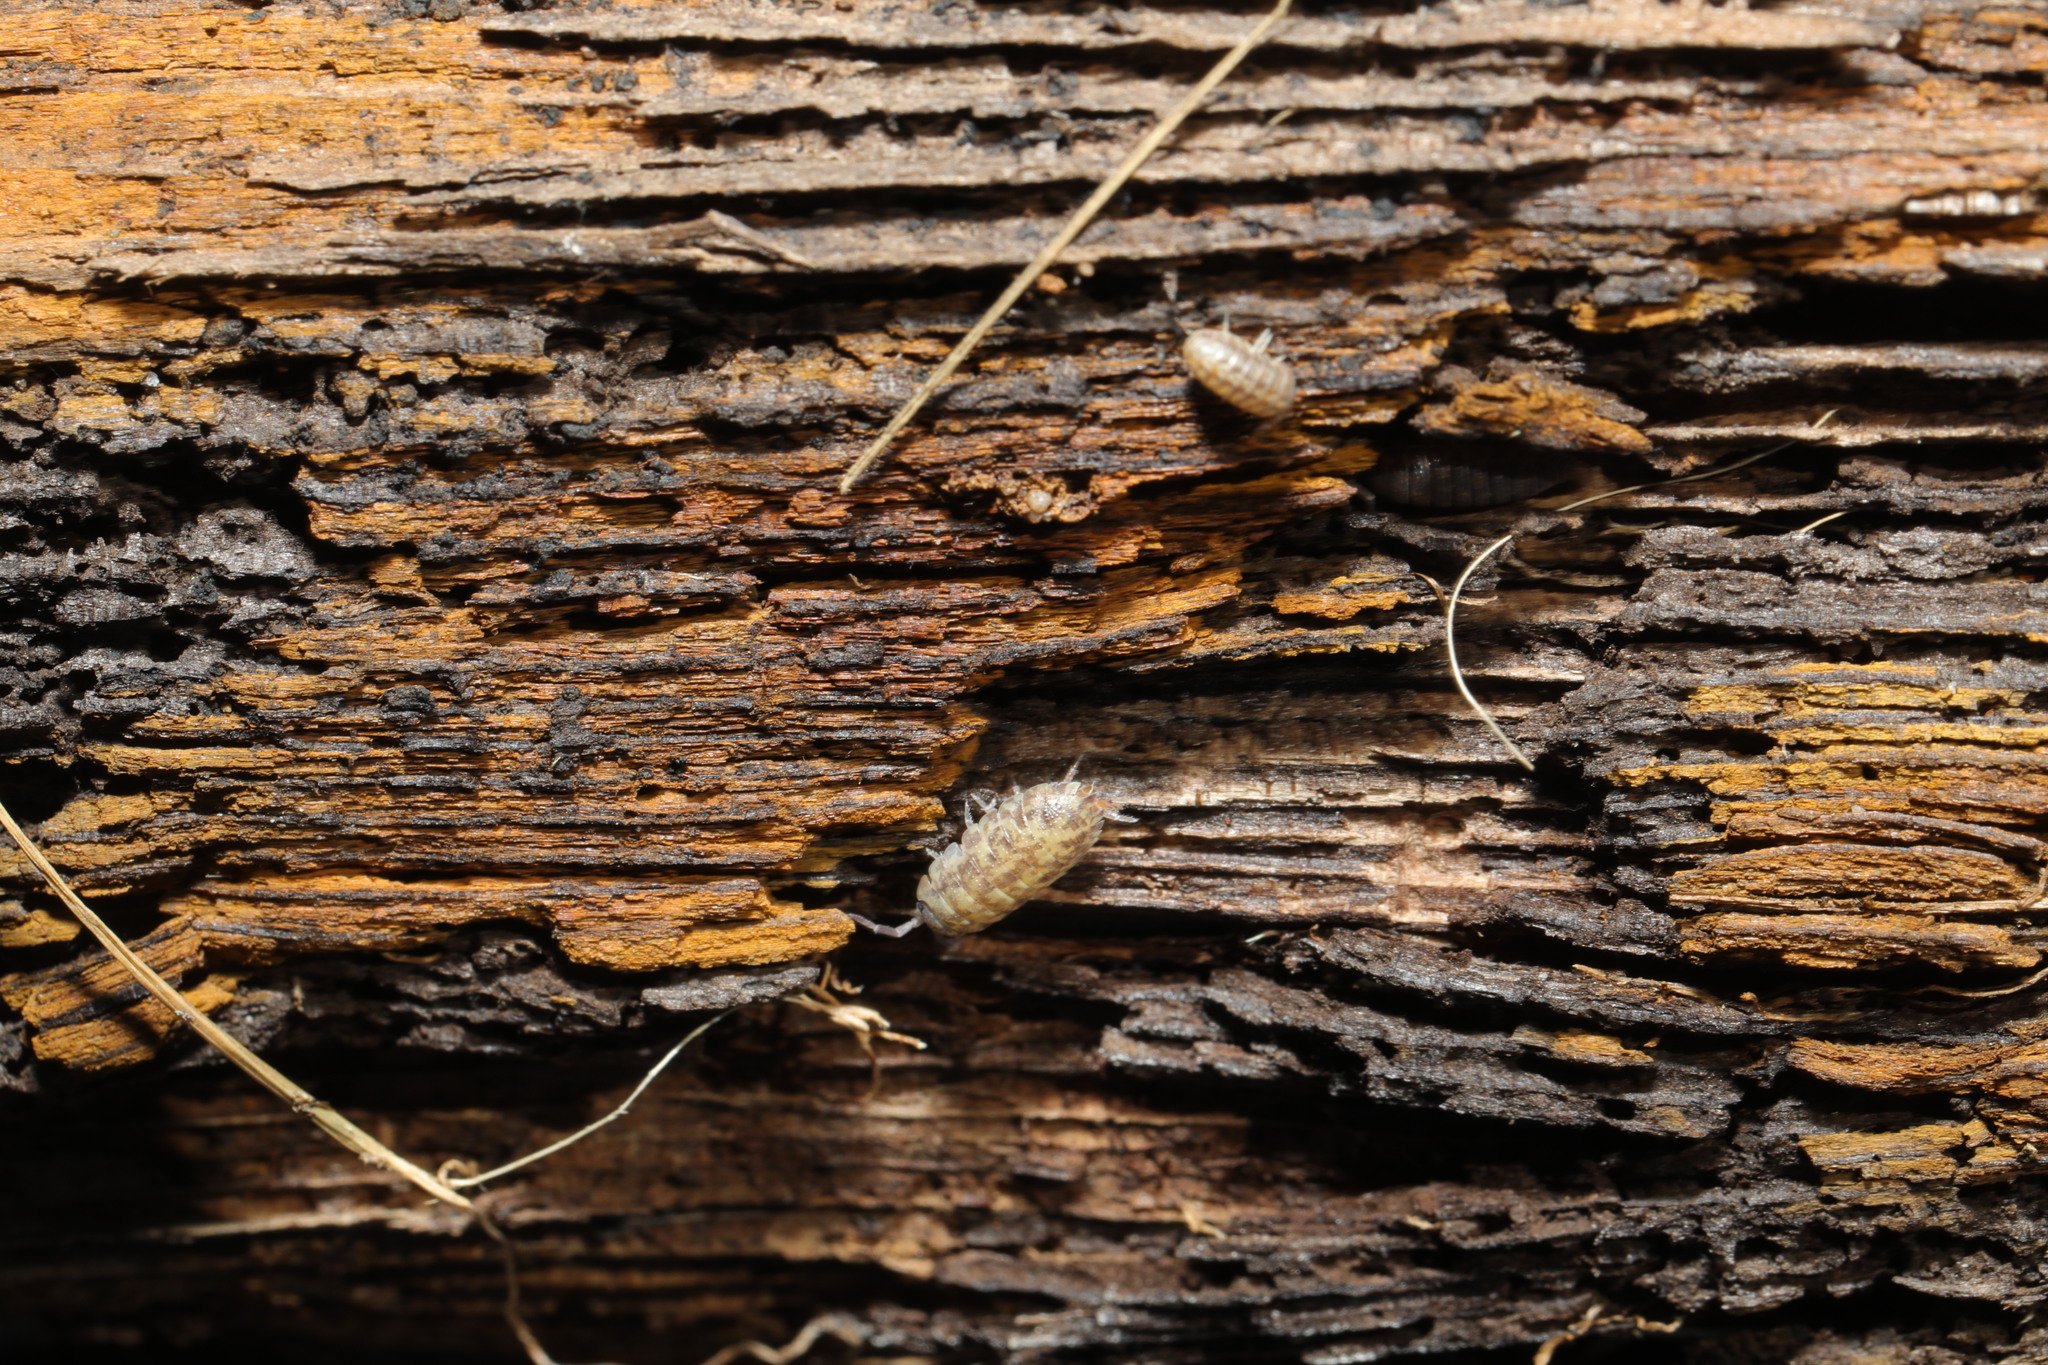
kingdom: Animalia
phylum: Arthropoda
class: Malacostraca
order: Isopoda
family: Porcellionidae
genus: Porcellio
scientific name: Porcellio scaber
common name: Common rough woodlouse
